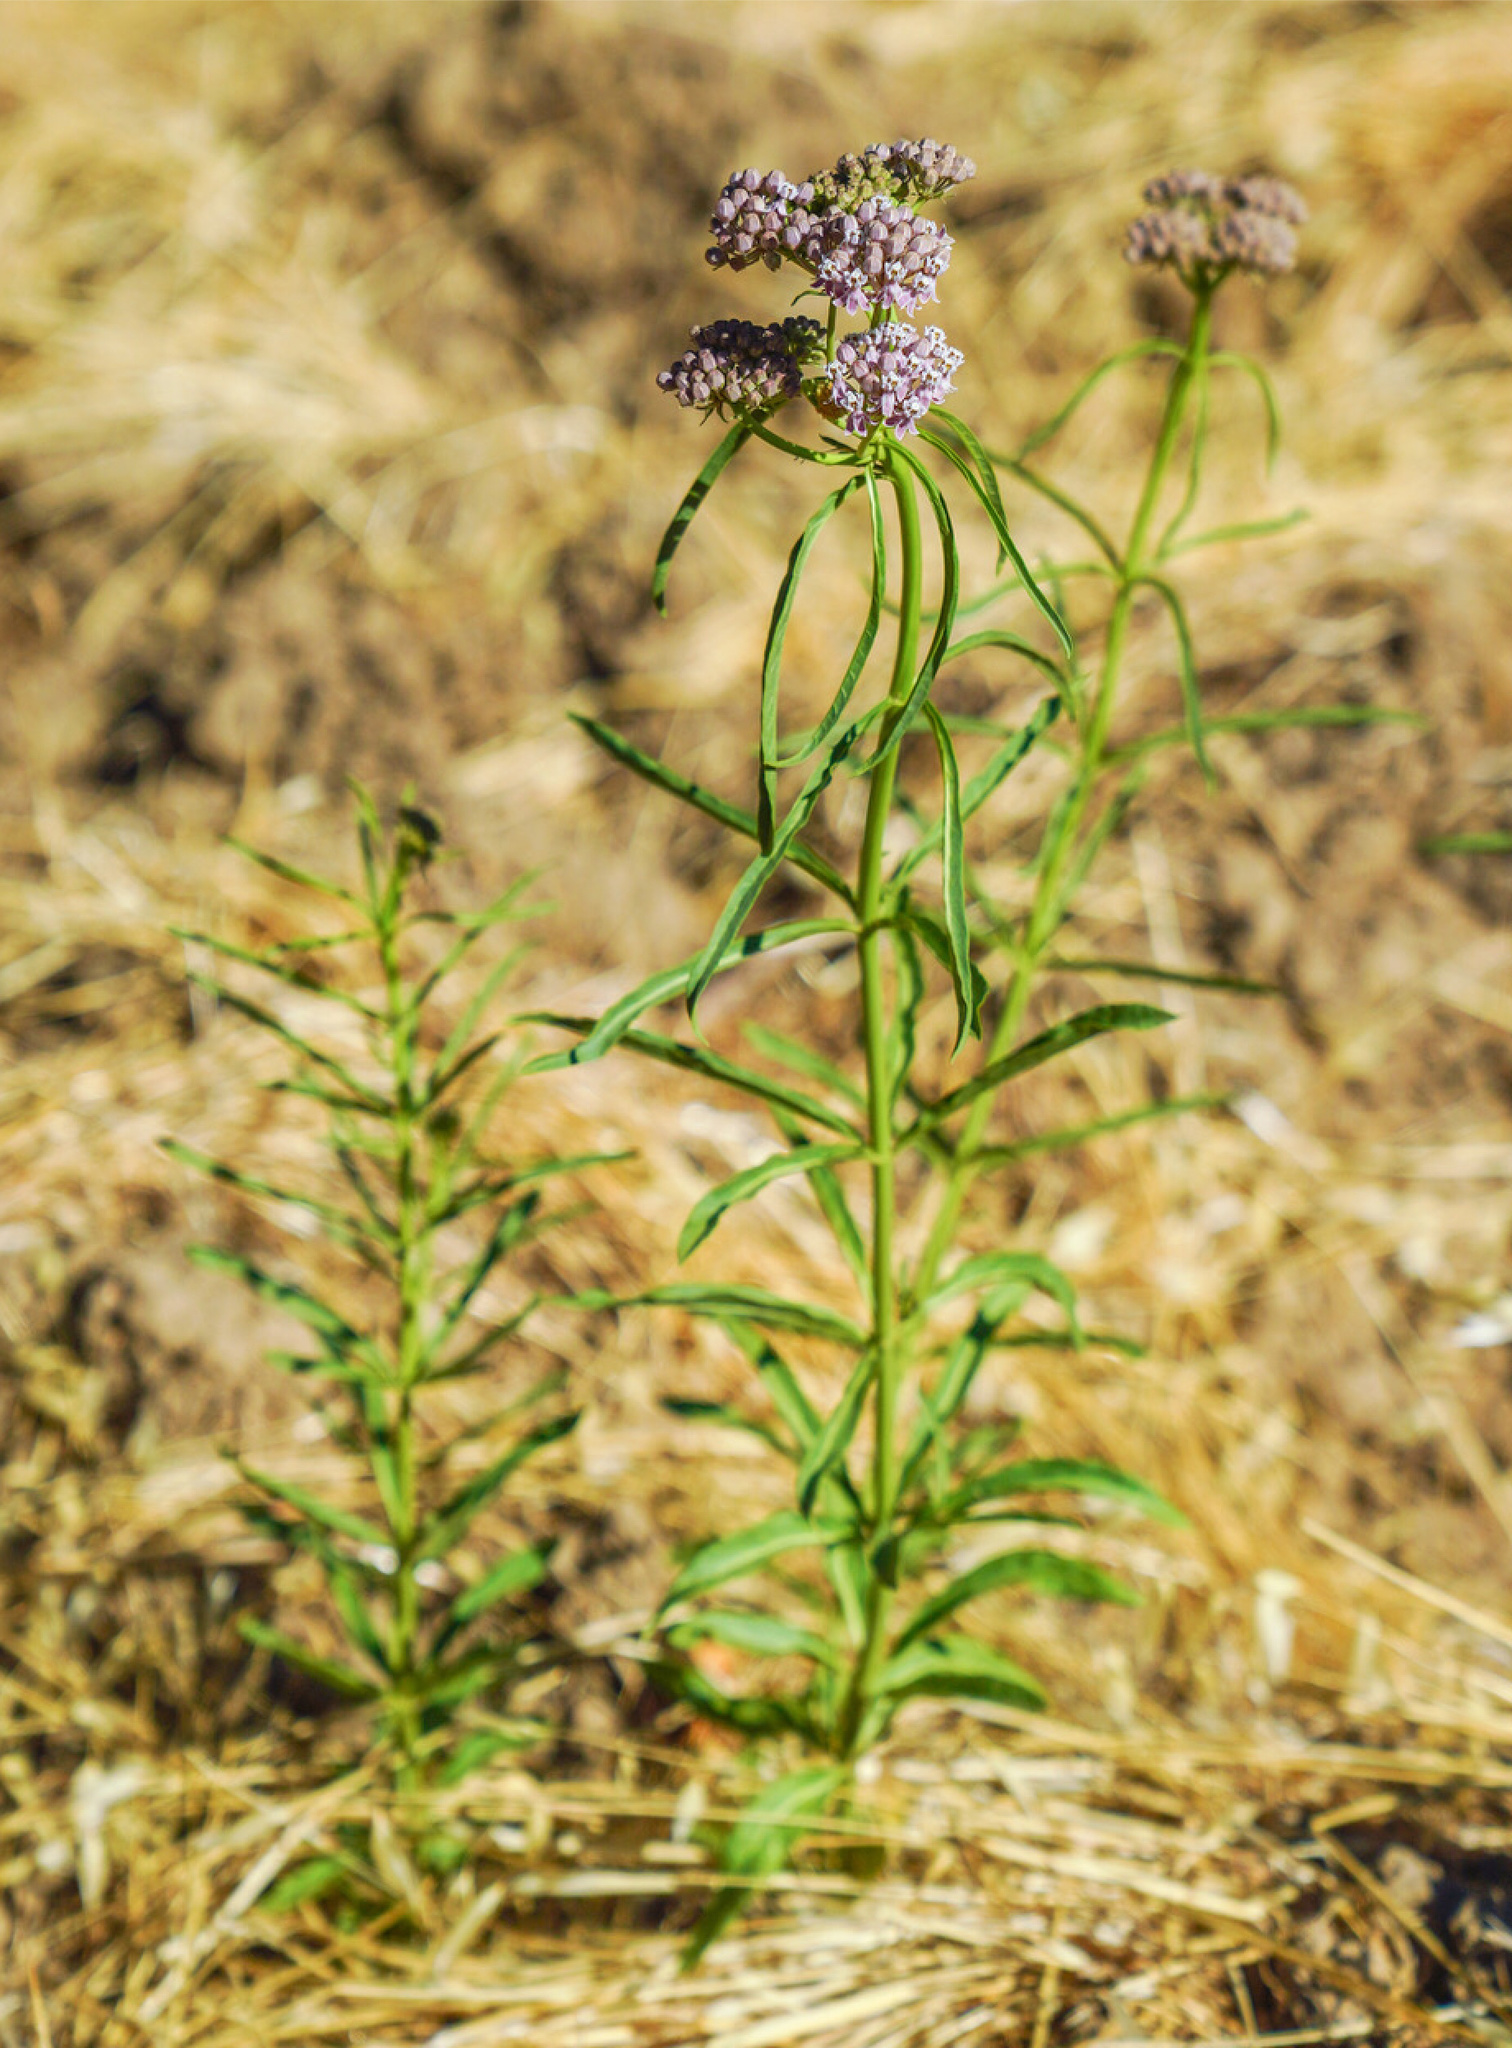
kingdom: Plantae
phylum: Tracheophyta
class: Magnoliopsida
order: Gentianales
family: Apocynaceae
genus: Asclepias
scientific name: Asclepias fascicularis
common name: Mexican milkweed
